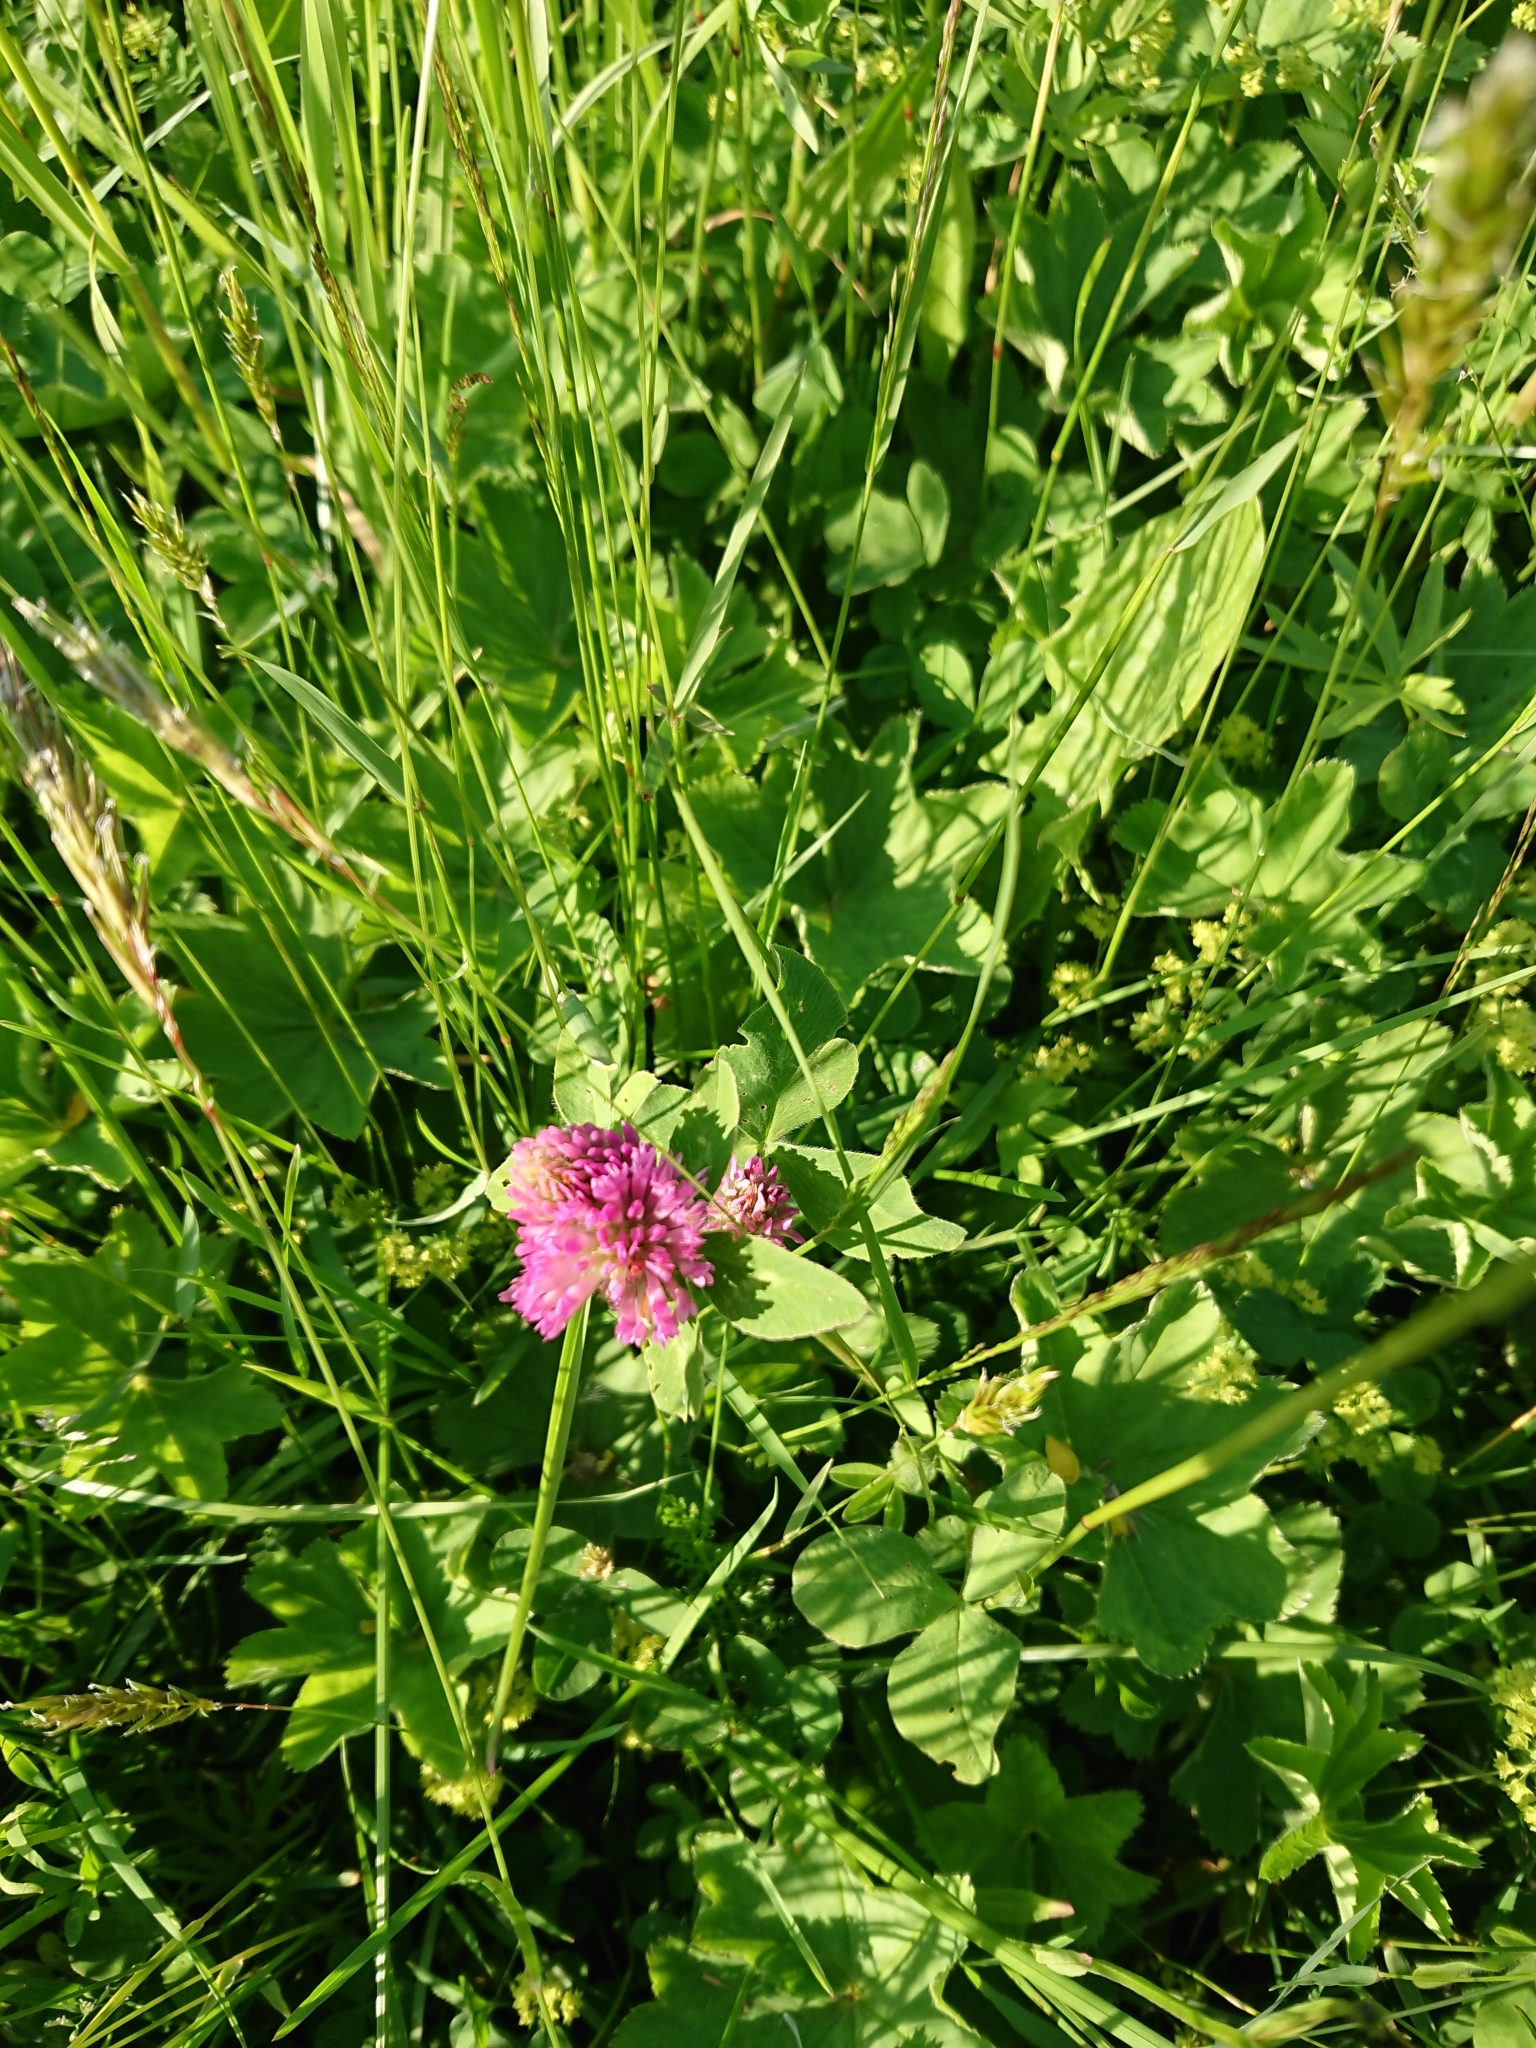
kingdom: Plantae
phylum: Tracheophyta
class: Magnoliopsida
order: Fabales
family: Fabaceae
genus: Trifolium
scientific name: Trifolium pratense
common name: Red clover
